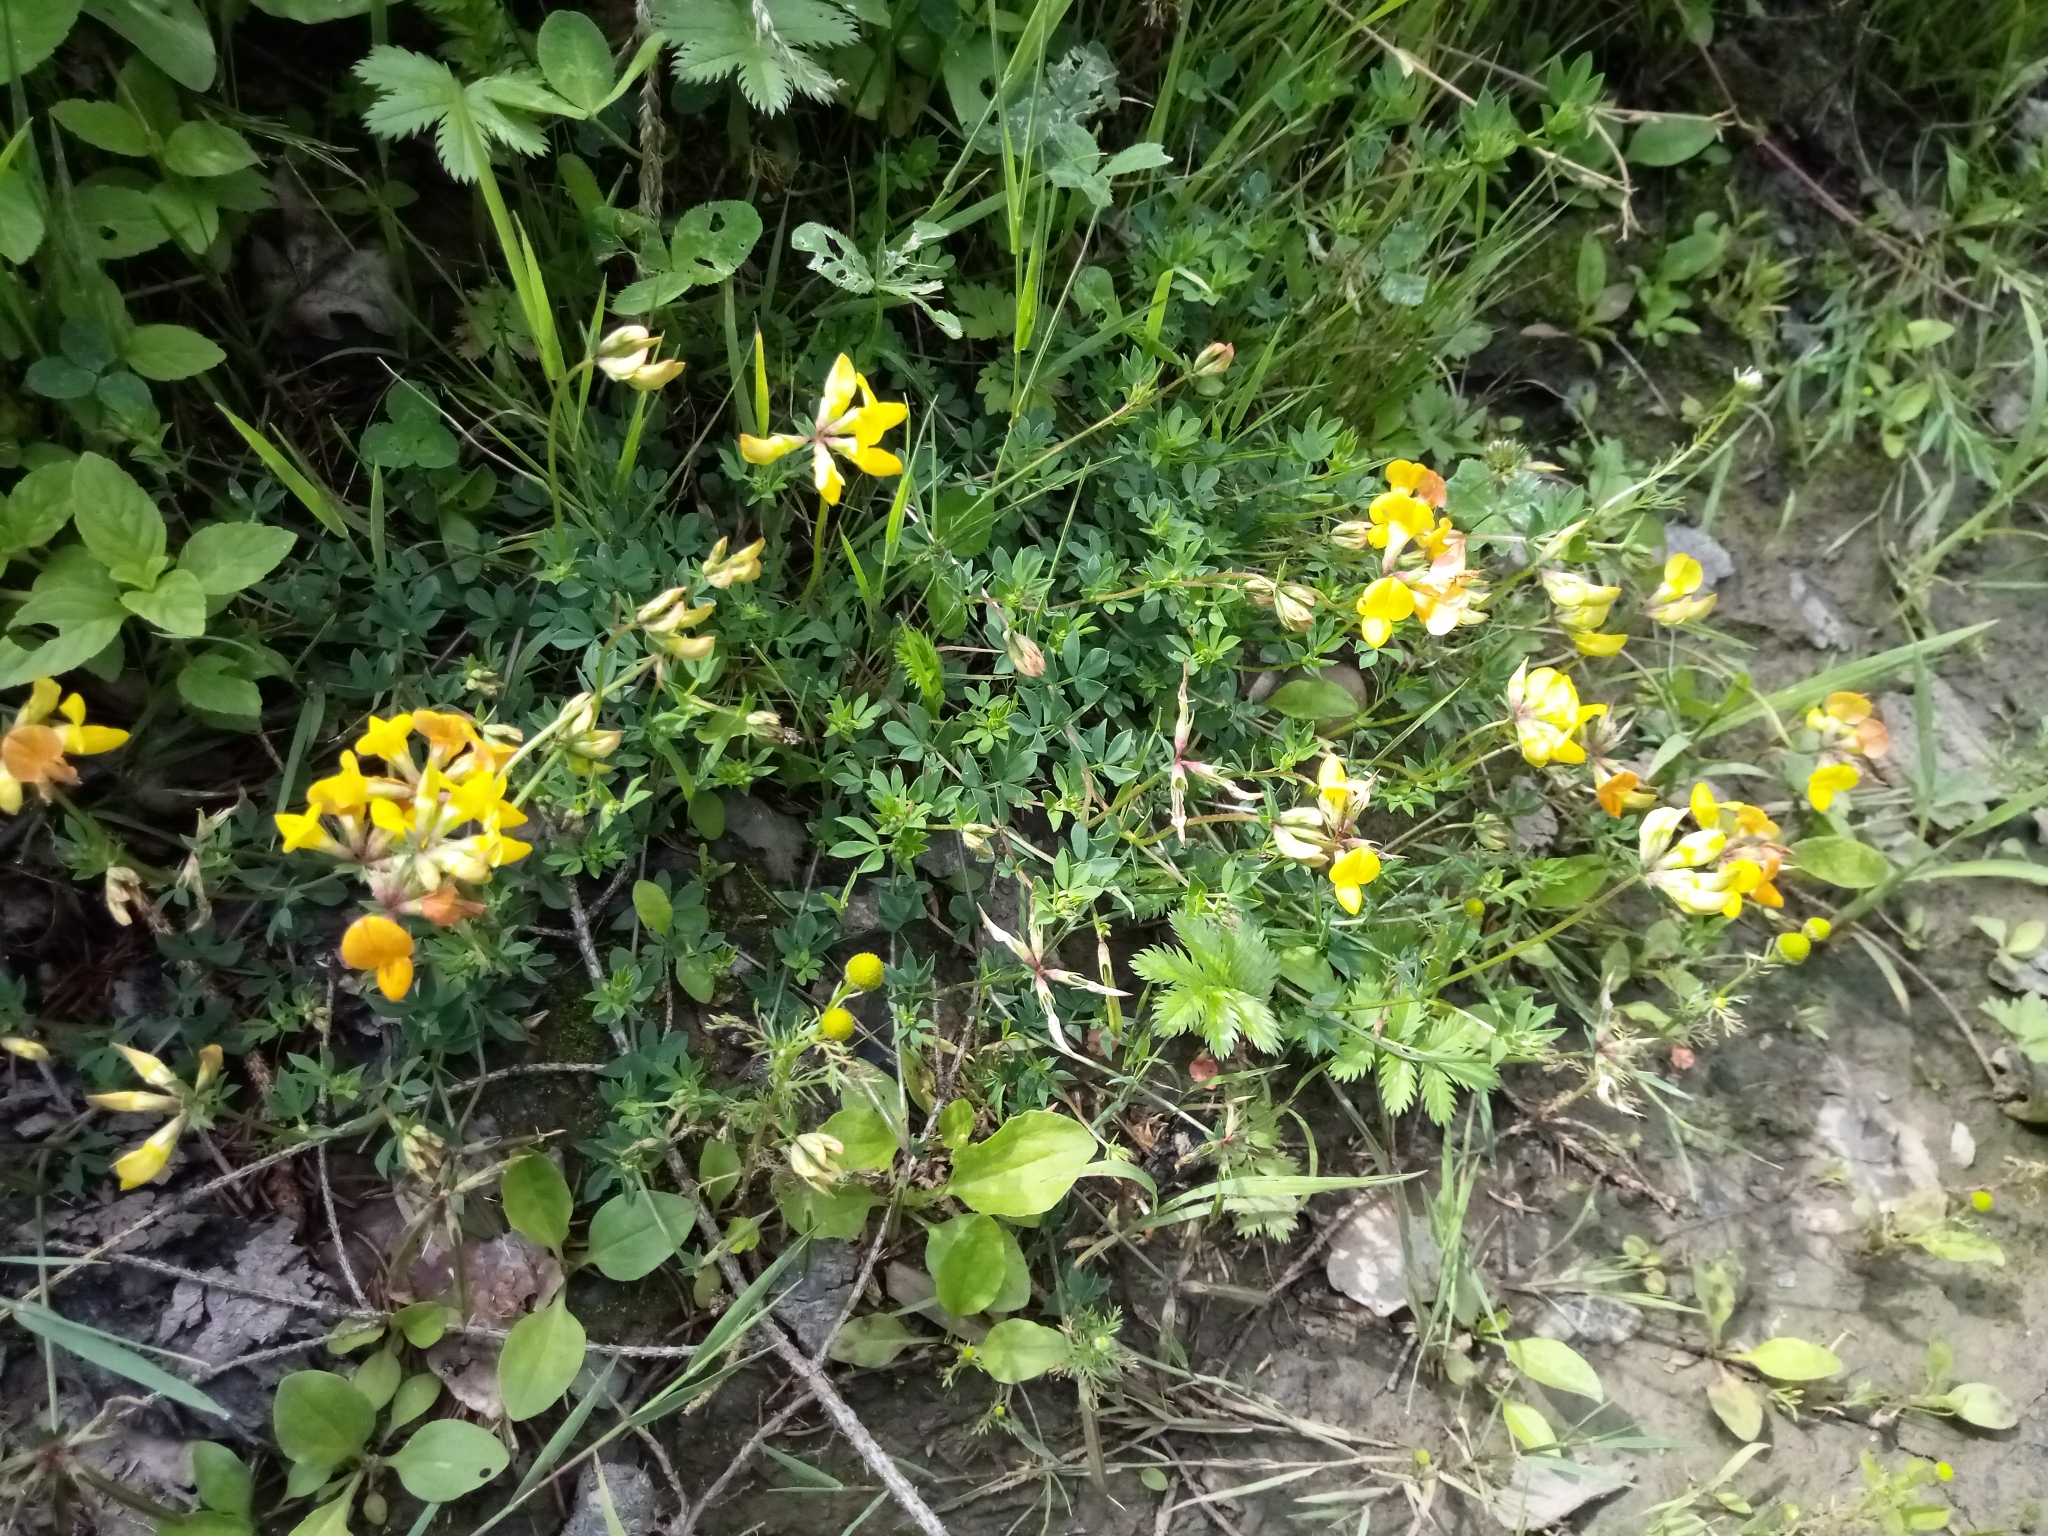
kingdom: Plantae
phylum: Tracheophyta
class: Magnoliopsida
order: Fabales
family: Fabaceae
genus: Lotus
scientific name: Lotus corniculatus
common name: Common bird's-foot-trefoil
